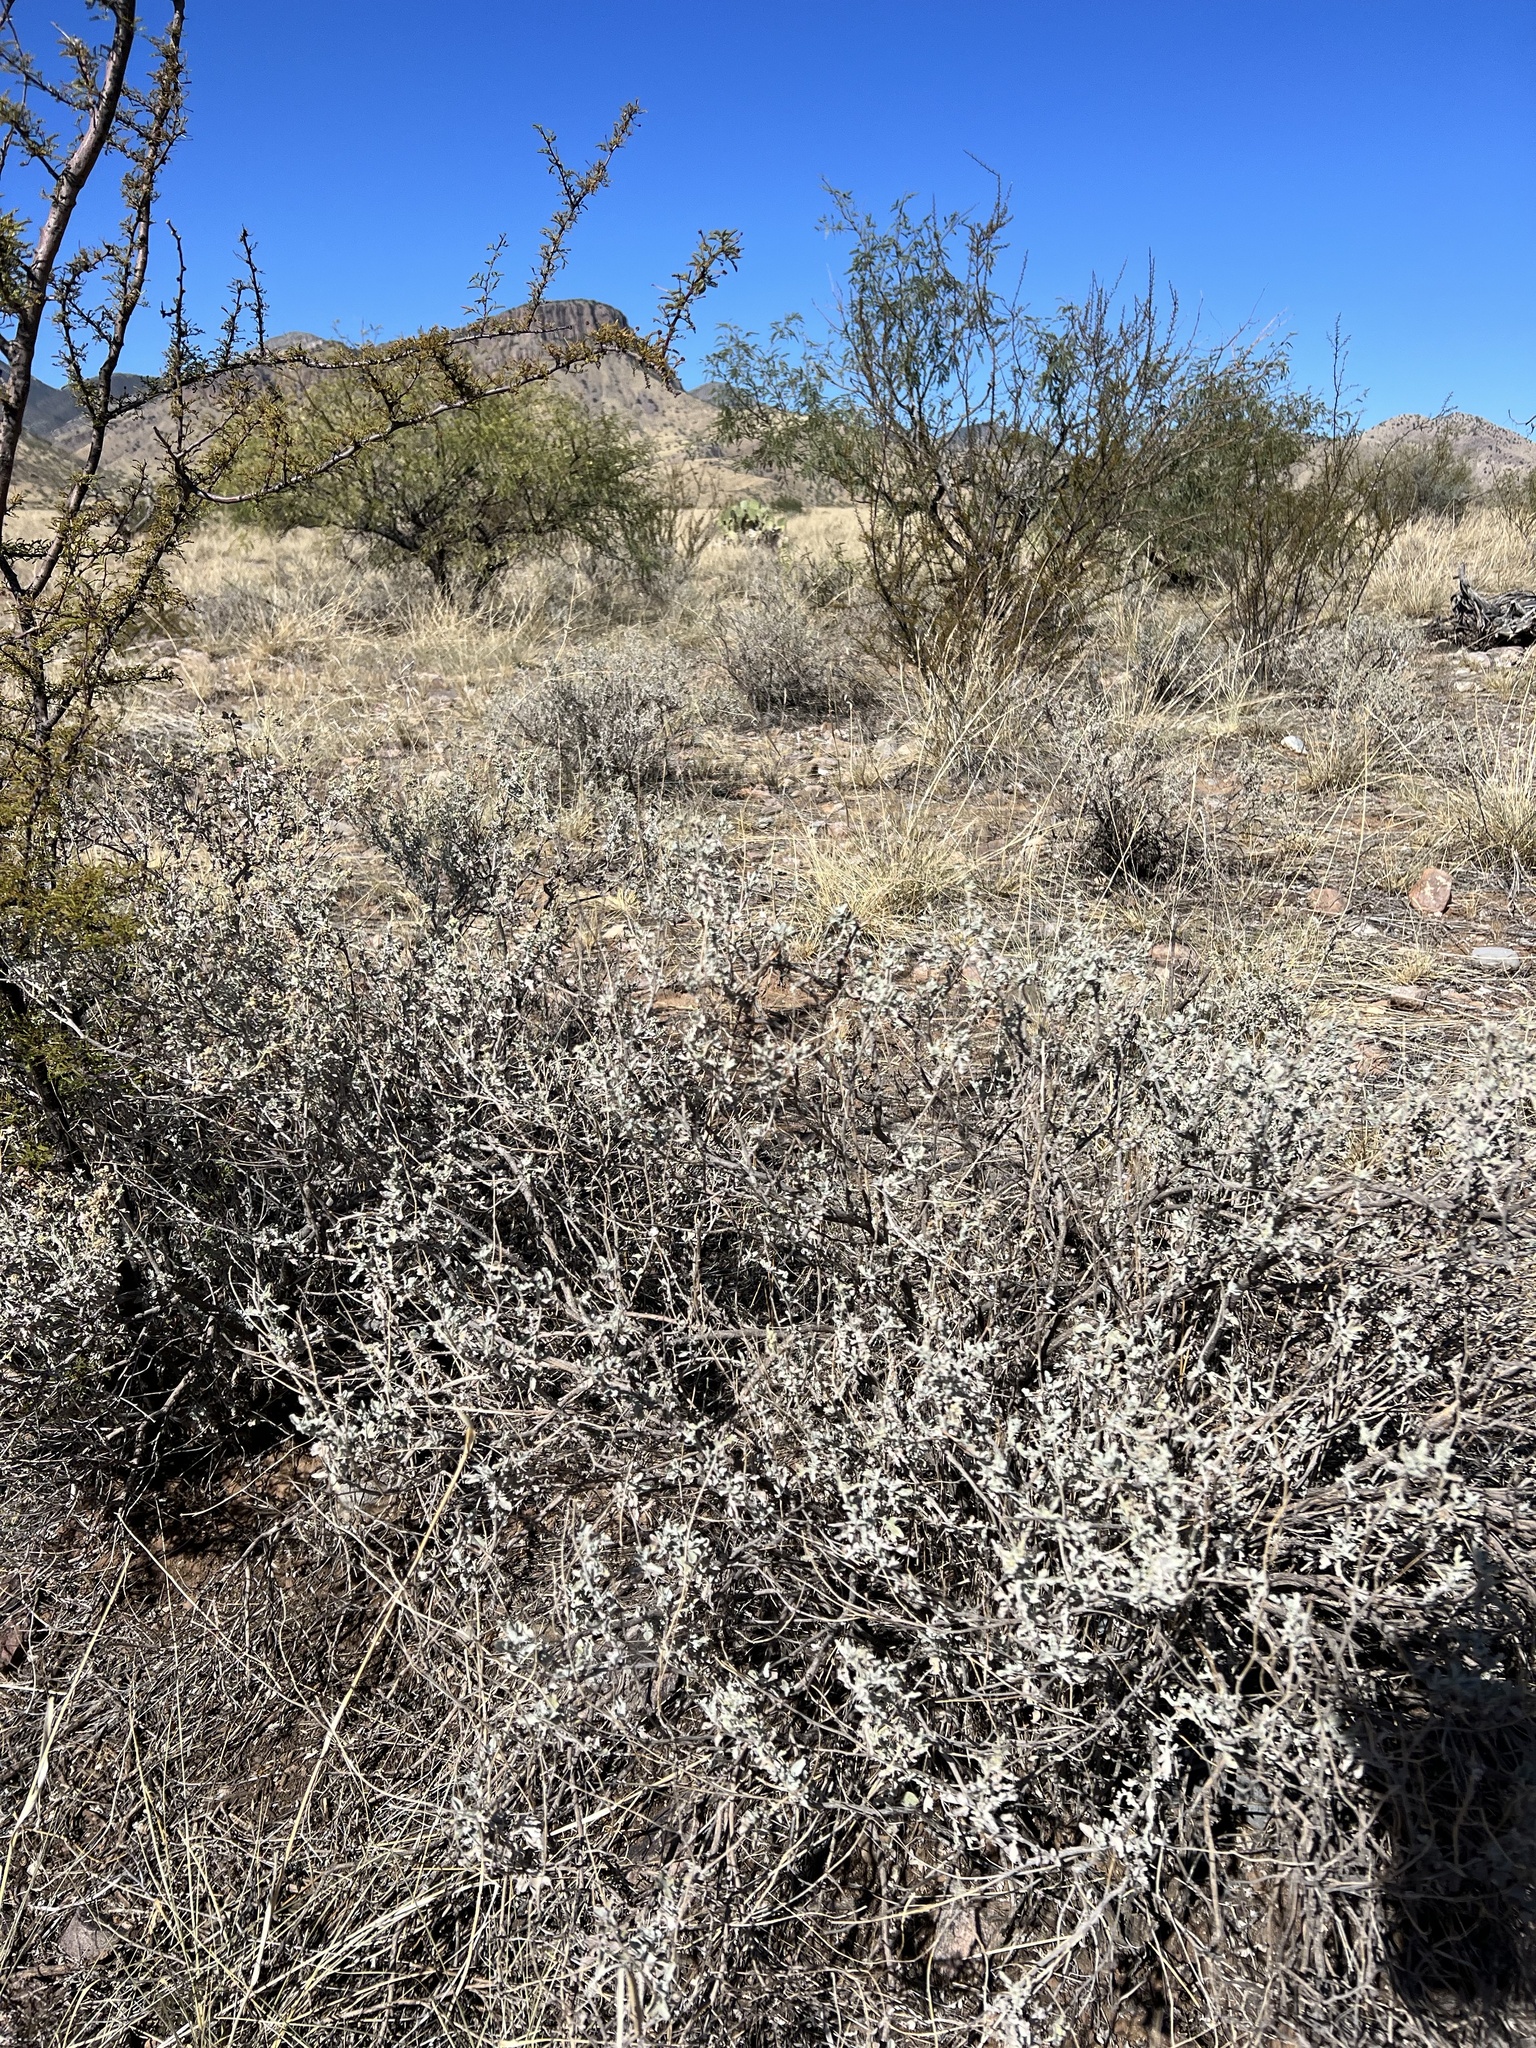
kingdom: Plantae
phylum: Tracheophyta
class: Magnoliopsida
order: Asterales
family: Asteraceae
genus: Parthenium
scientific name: Parthenium incanum
